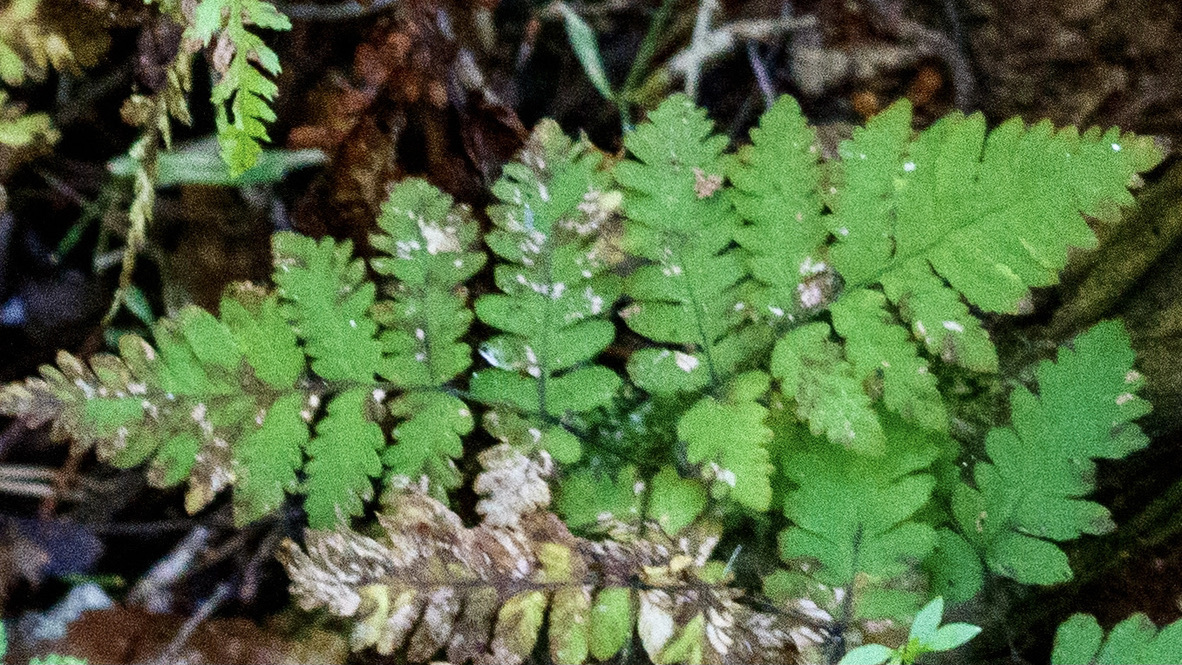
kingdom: Plantae
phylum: Tracheophyta
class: Polypodiopsida
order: Polypodiales
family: Cystopteridaceae
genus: Gymnocarpium
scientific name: Gymnocarpium dryopteris
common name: Oak fern
